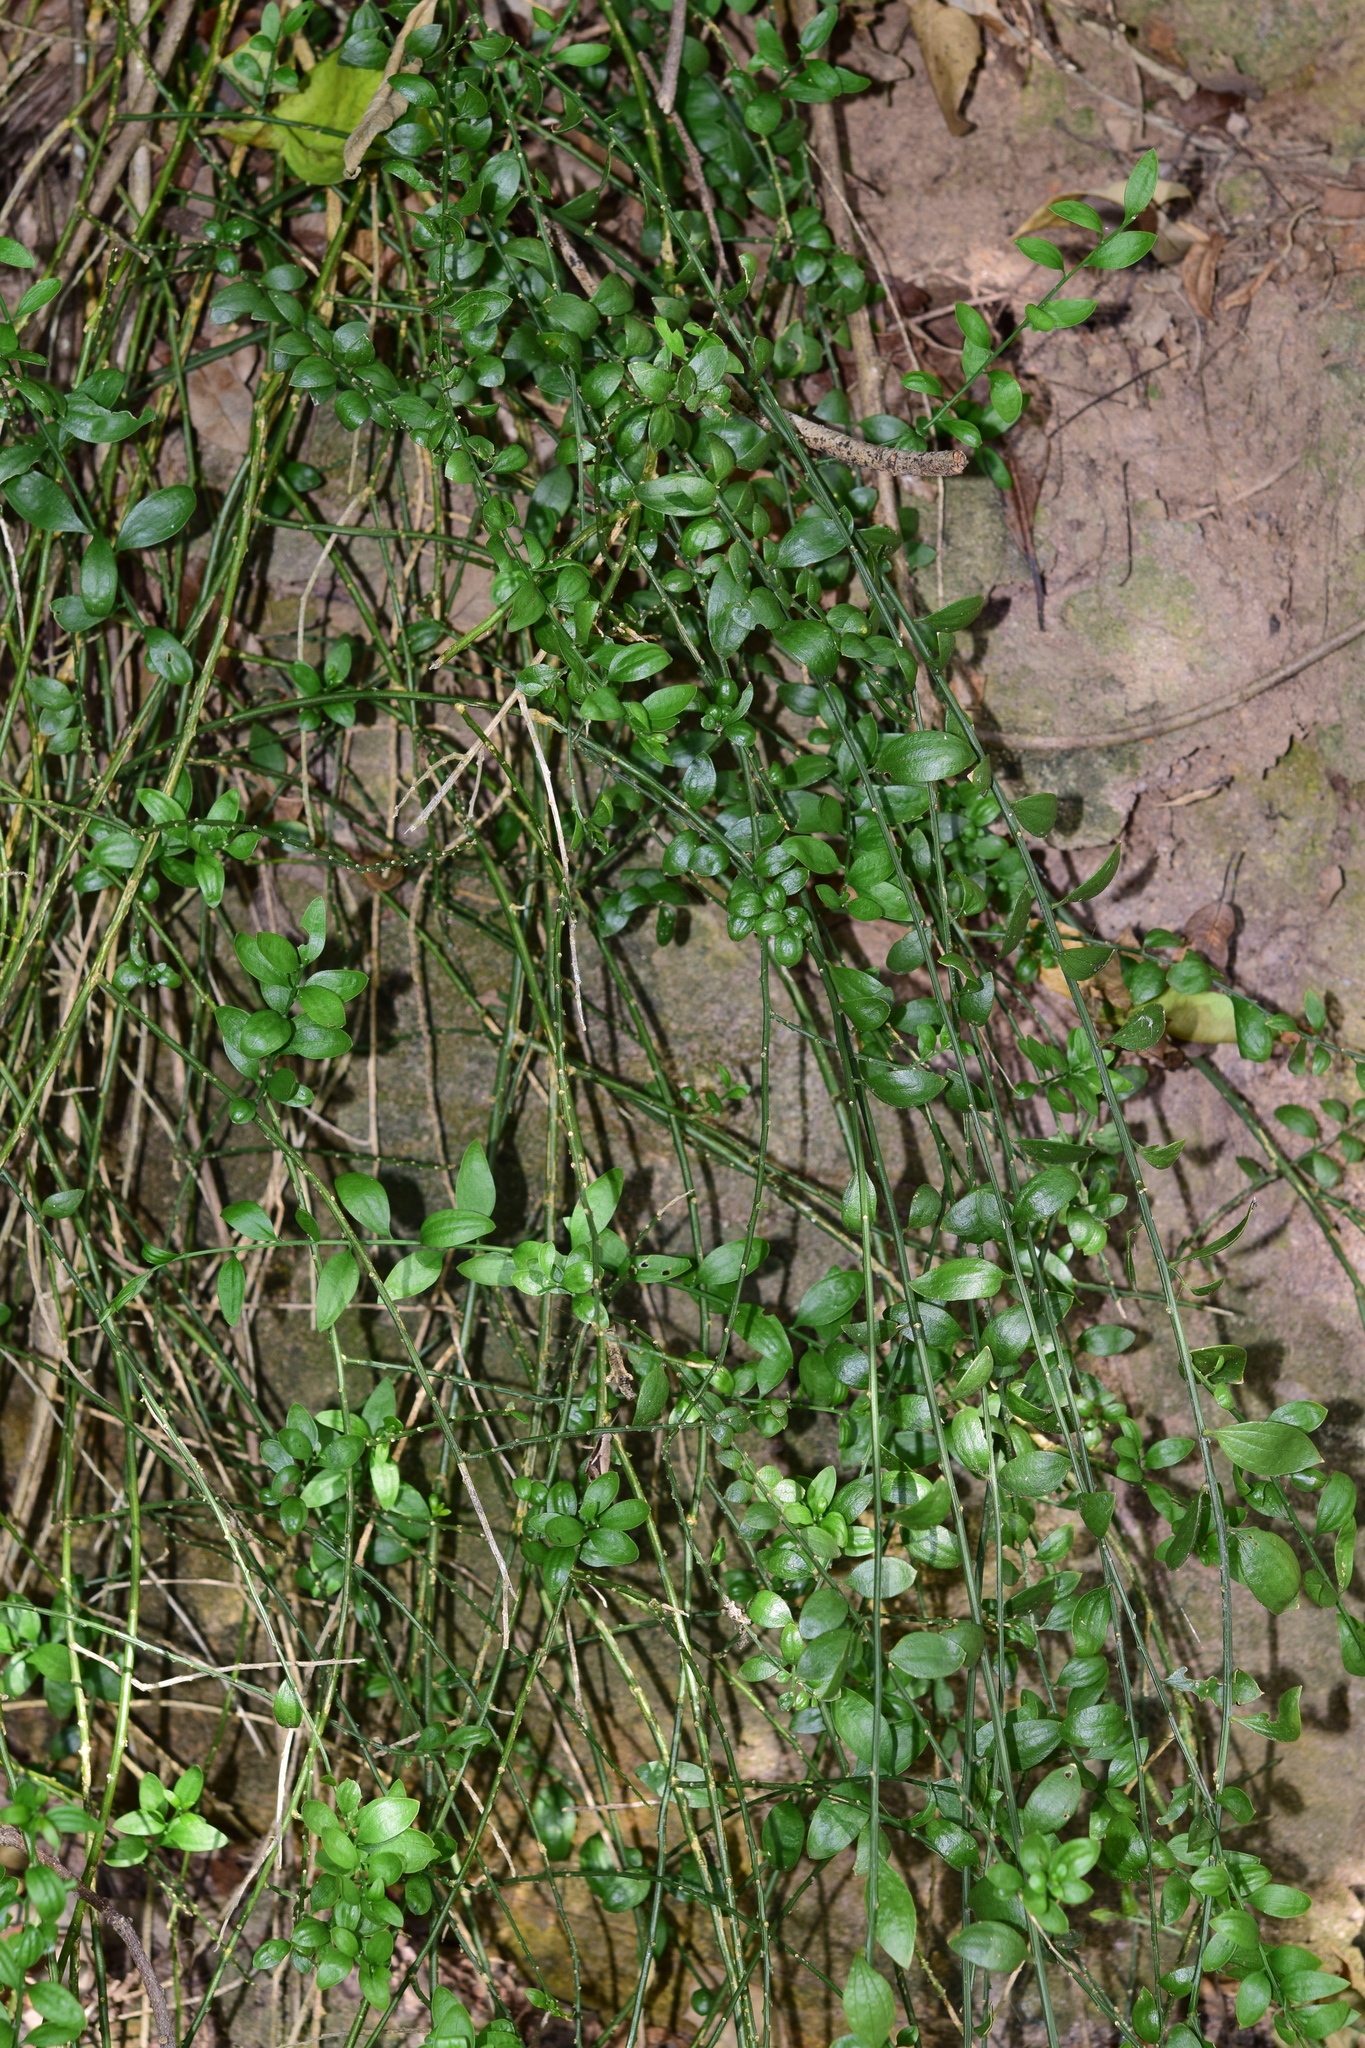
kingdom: Plantae
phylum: Tracheophyta
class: Magnoliopsida
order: Santalales
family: Thesiaceae
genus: Osyridicarpos
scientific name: Osyridicarpos schimperianus
